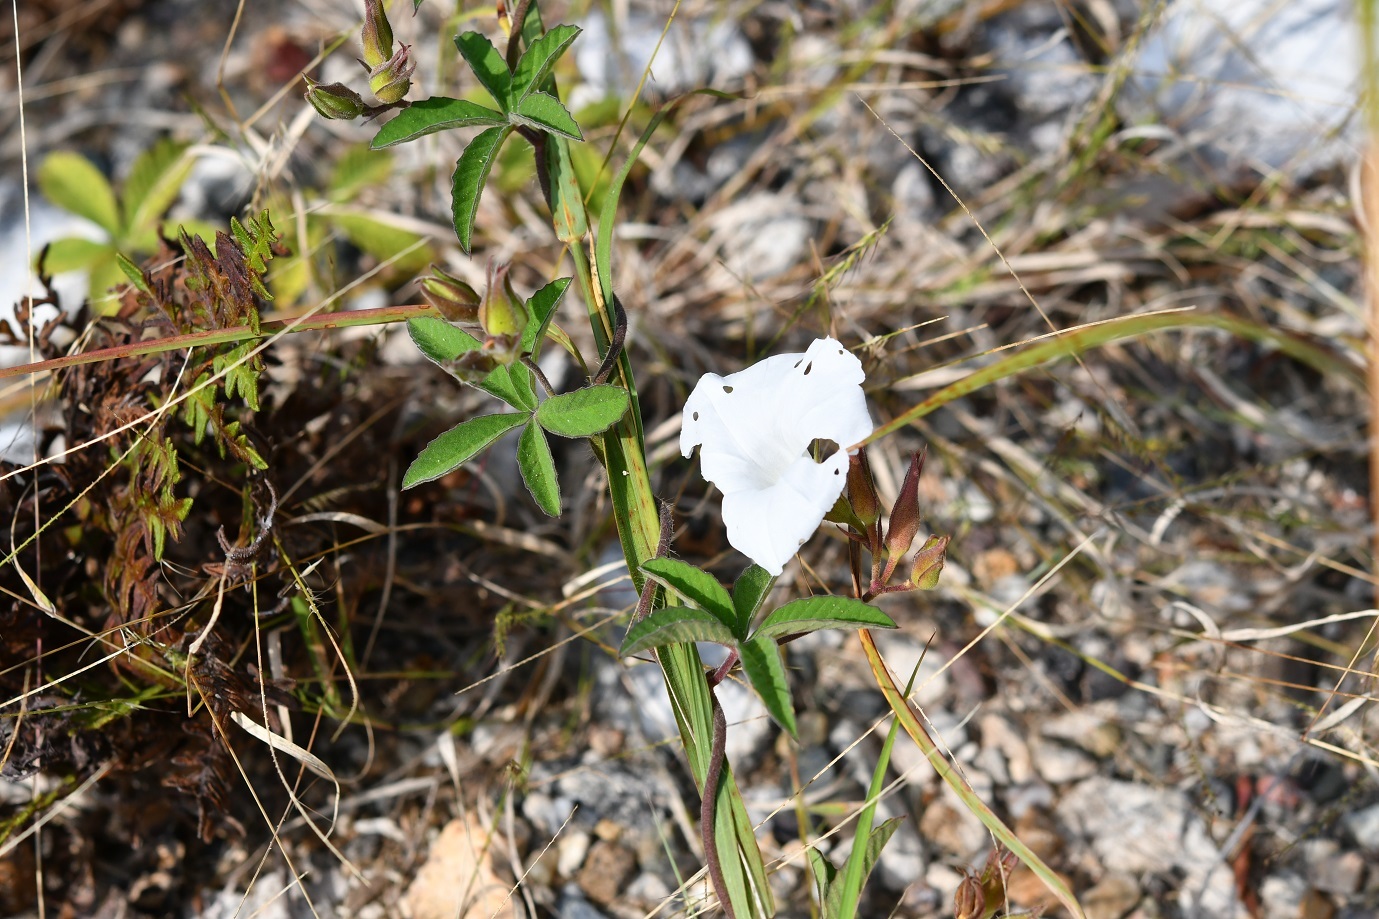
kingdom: Plantae
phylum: Tracheophyta
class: Magnoliopsida
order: Solanales
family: Convolvulaceae
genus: Distimake
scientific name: Distimake cissoides
